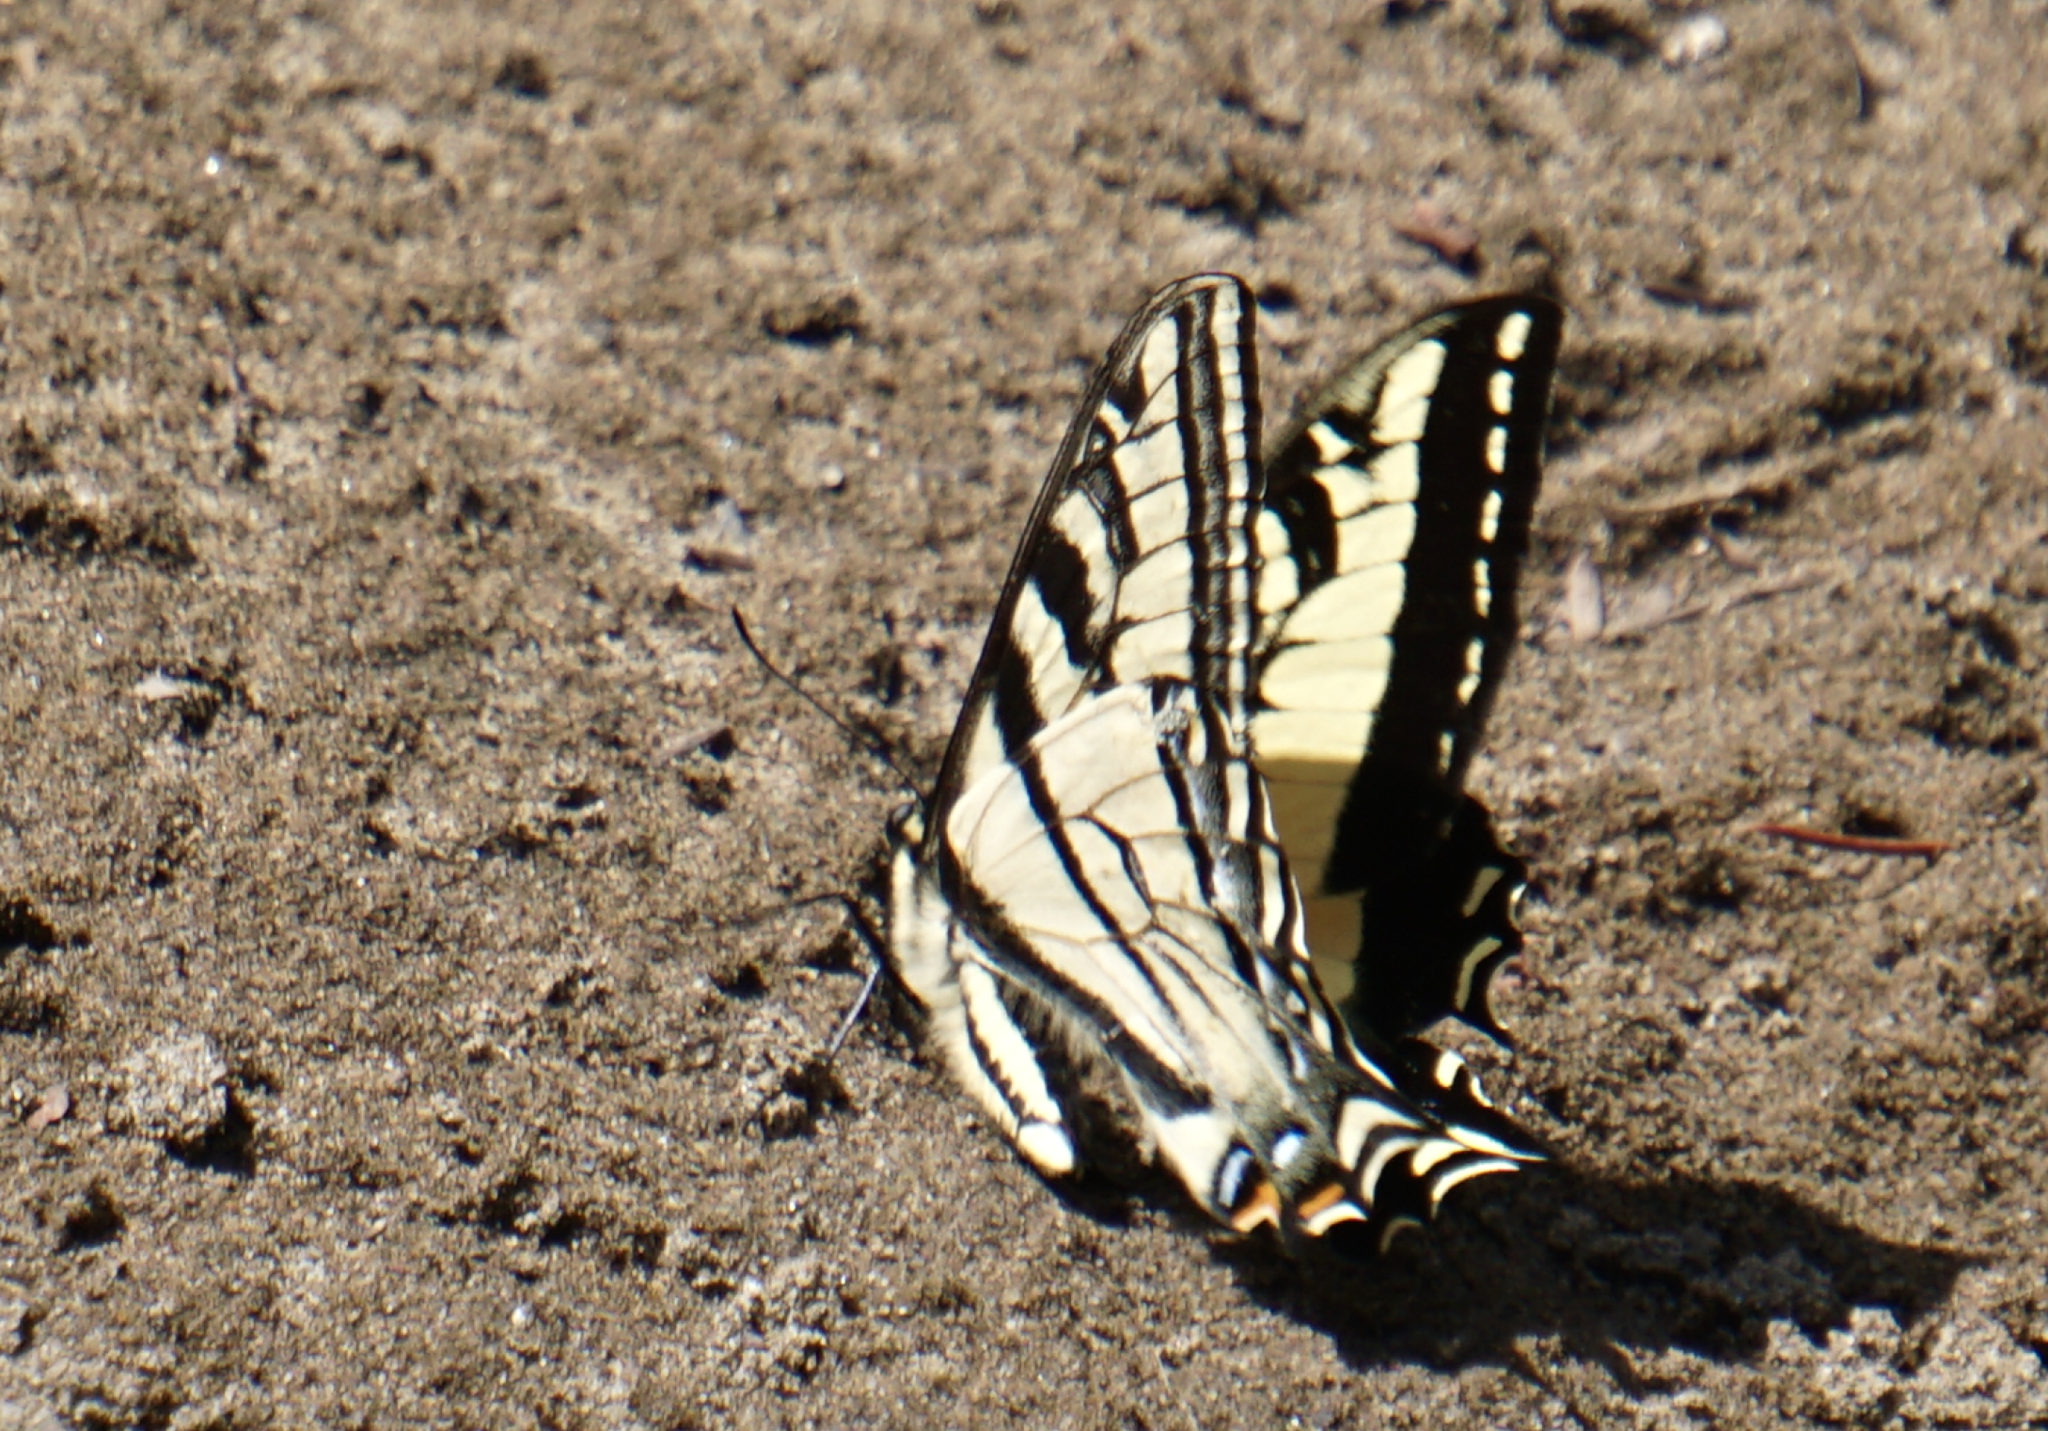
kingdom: Animalia
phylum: Arthropoda
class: Insecta
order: Lepidoptera
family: Papilionidae
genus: Papilio
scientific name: Papilio rutulus
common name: Western tiger swallowtail
